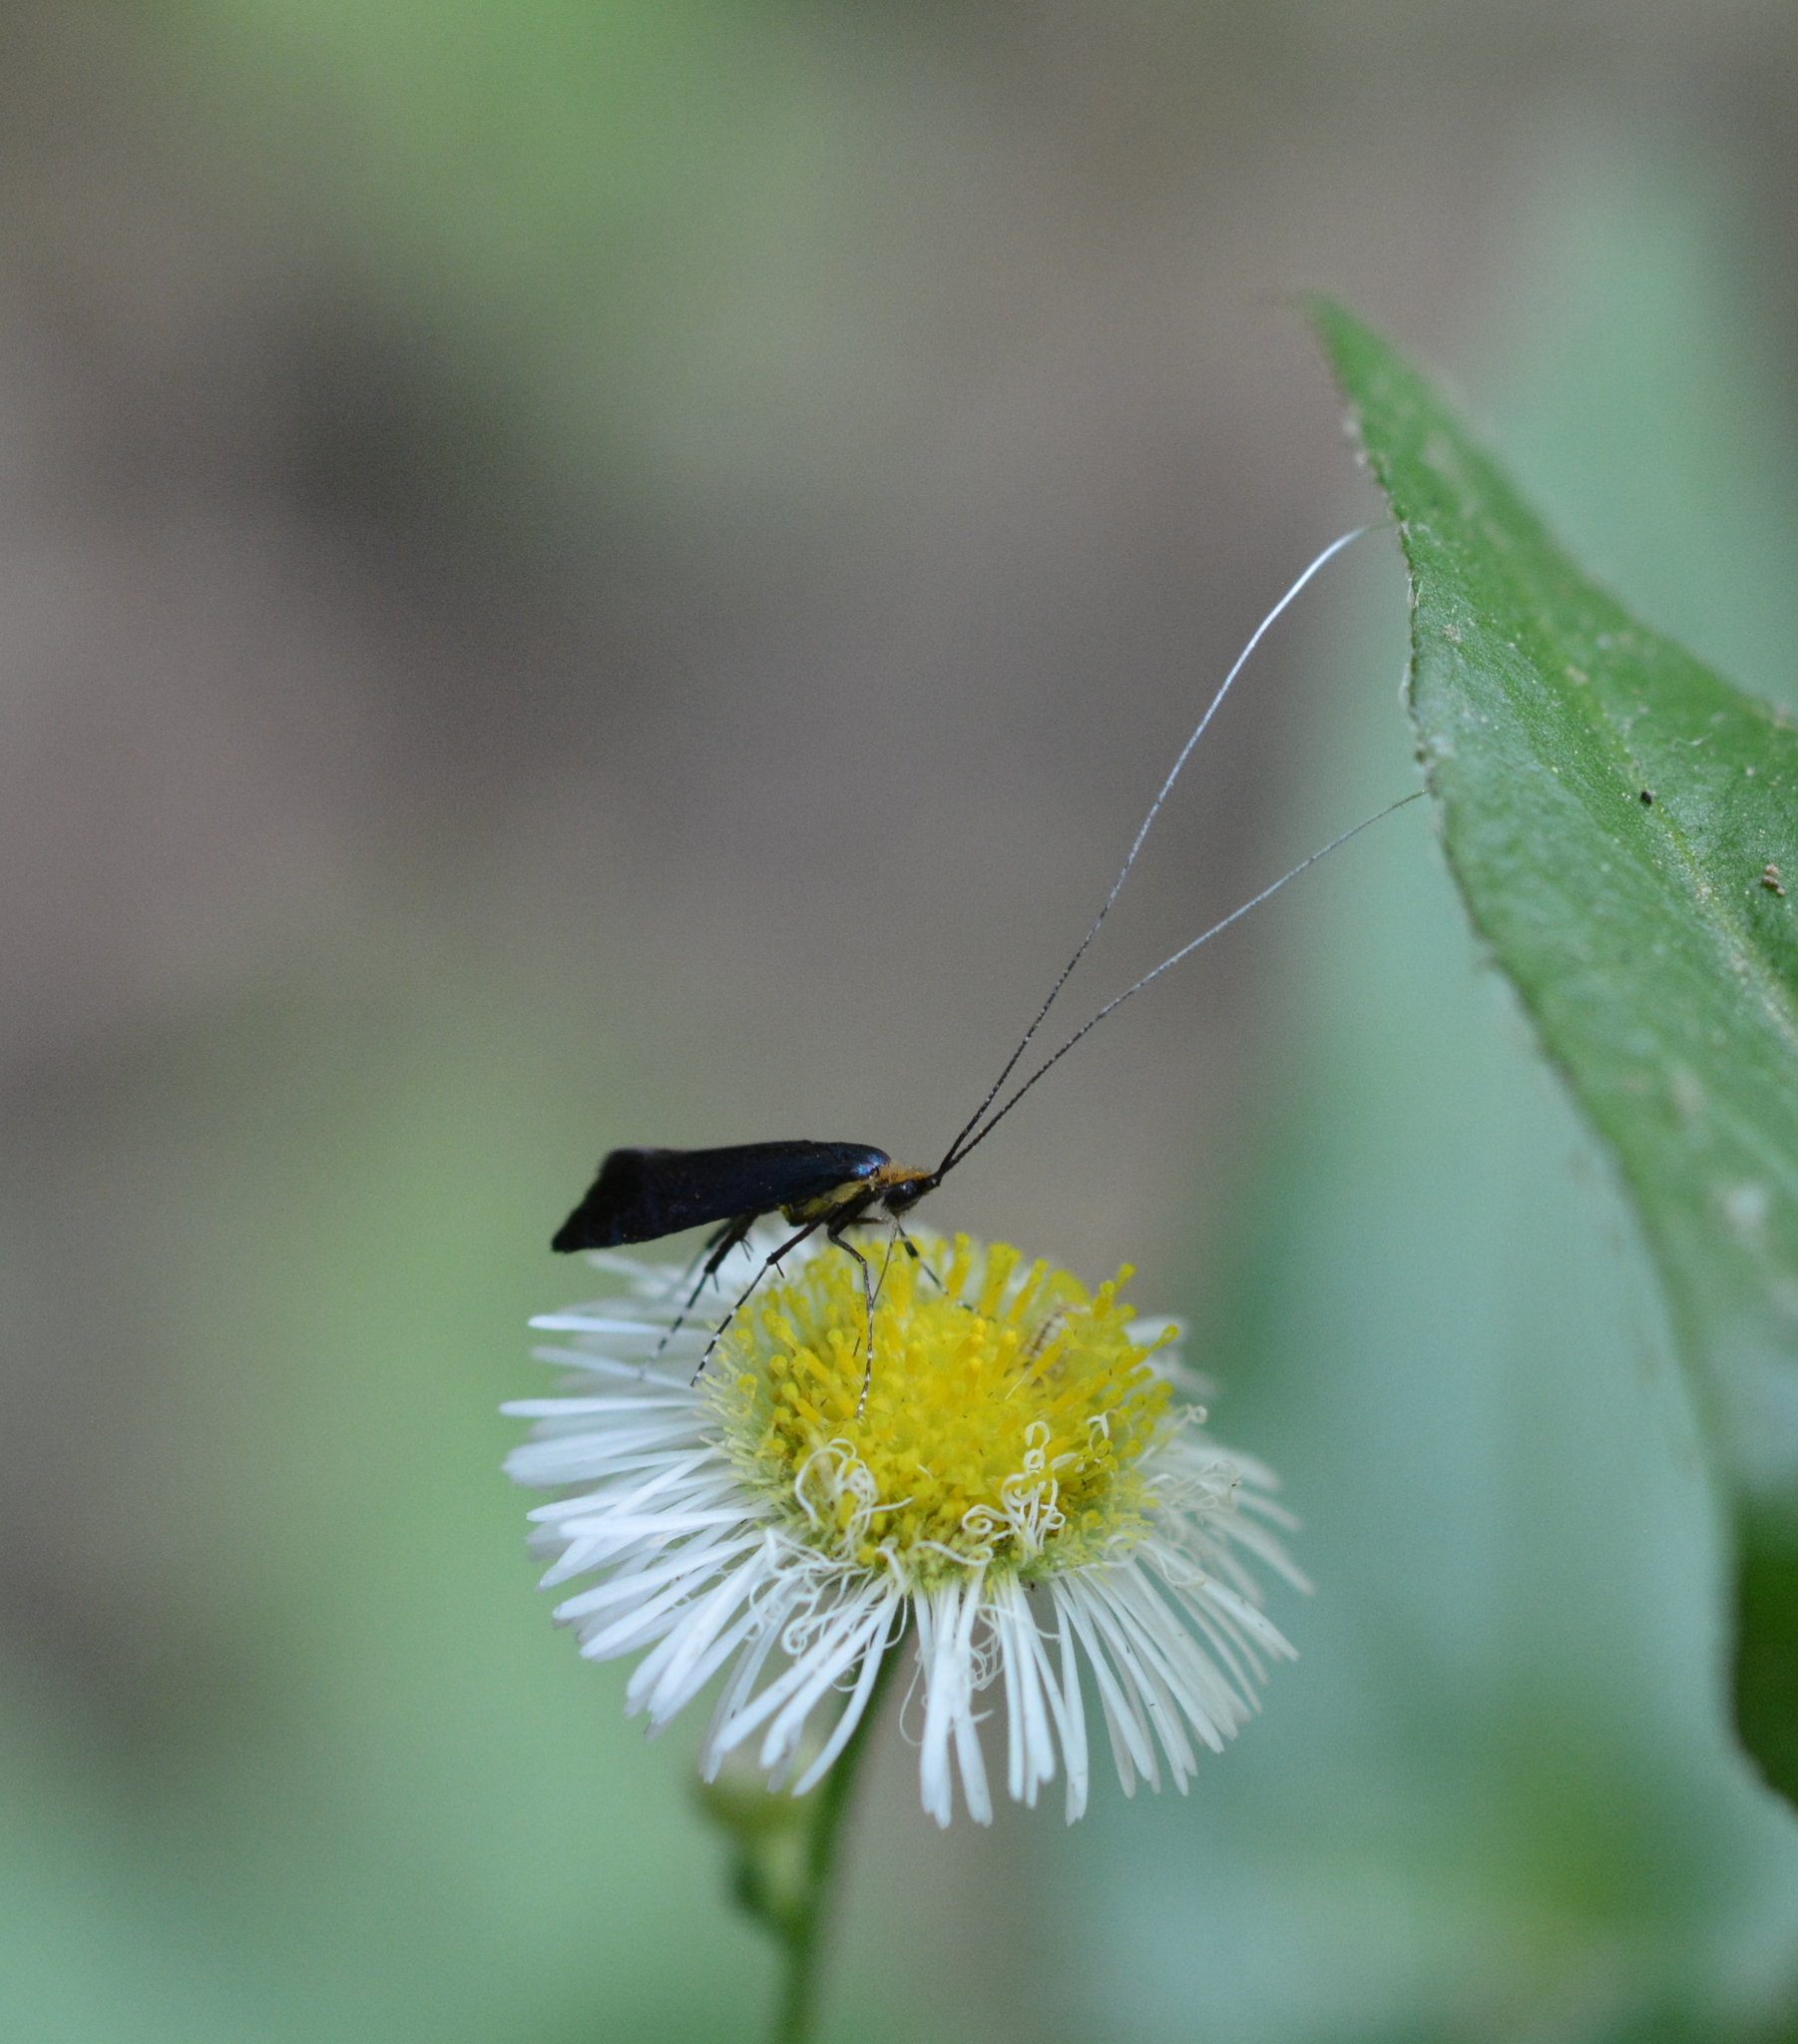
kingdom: Animalia
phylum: Arthropoda
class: Insecta
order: Lepidoptera
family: Adelidae
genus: Adela
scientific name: Adela caeruleella
